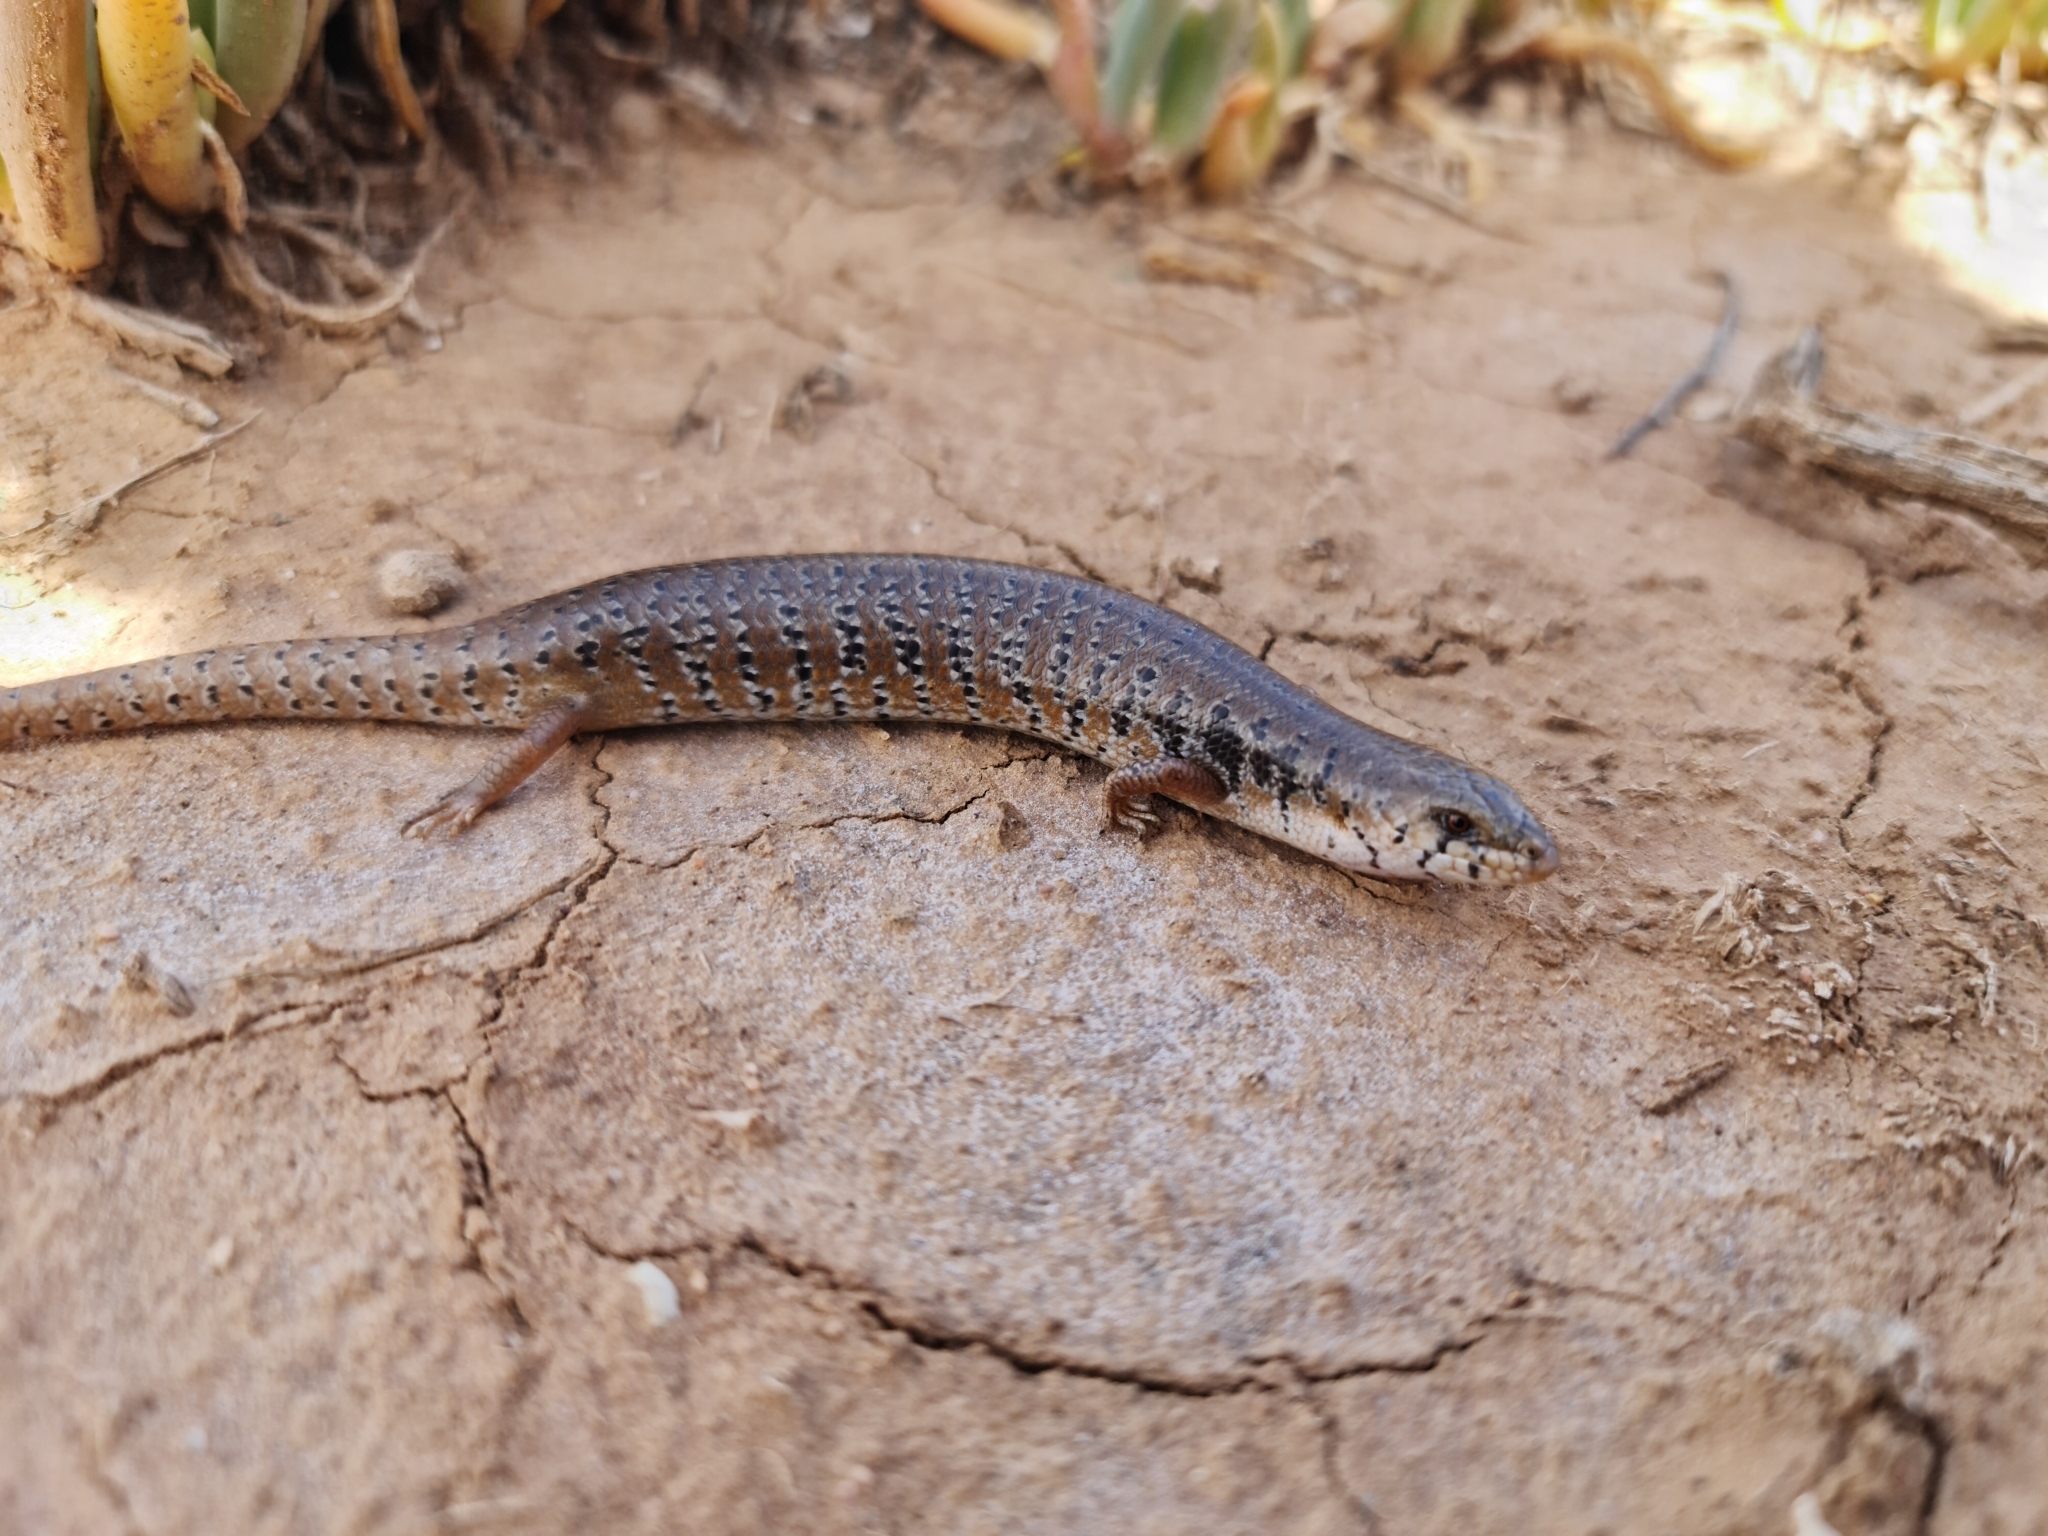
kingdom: Animalia
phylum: Chordata
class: Squamata
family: Scincidae
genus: Cyclodomorphus
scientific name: Cyclodomorphus venustus
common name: Slender bluetongue
